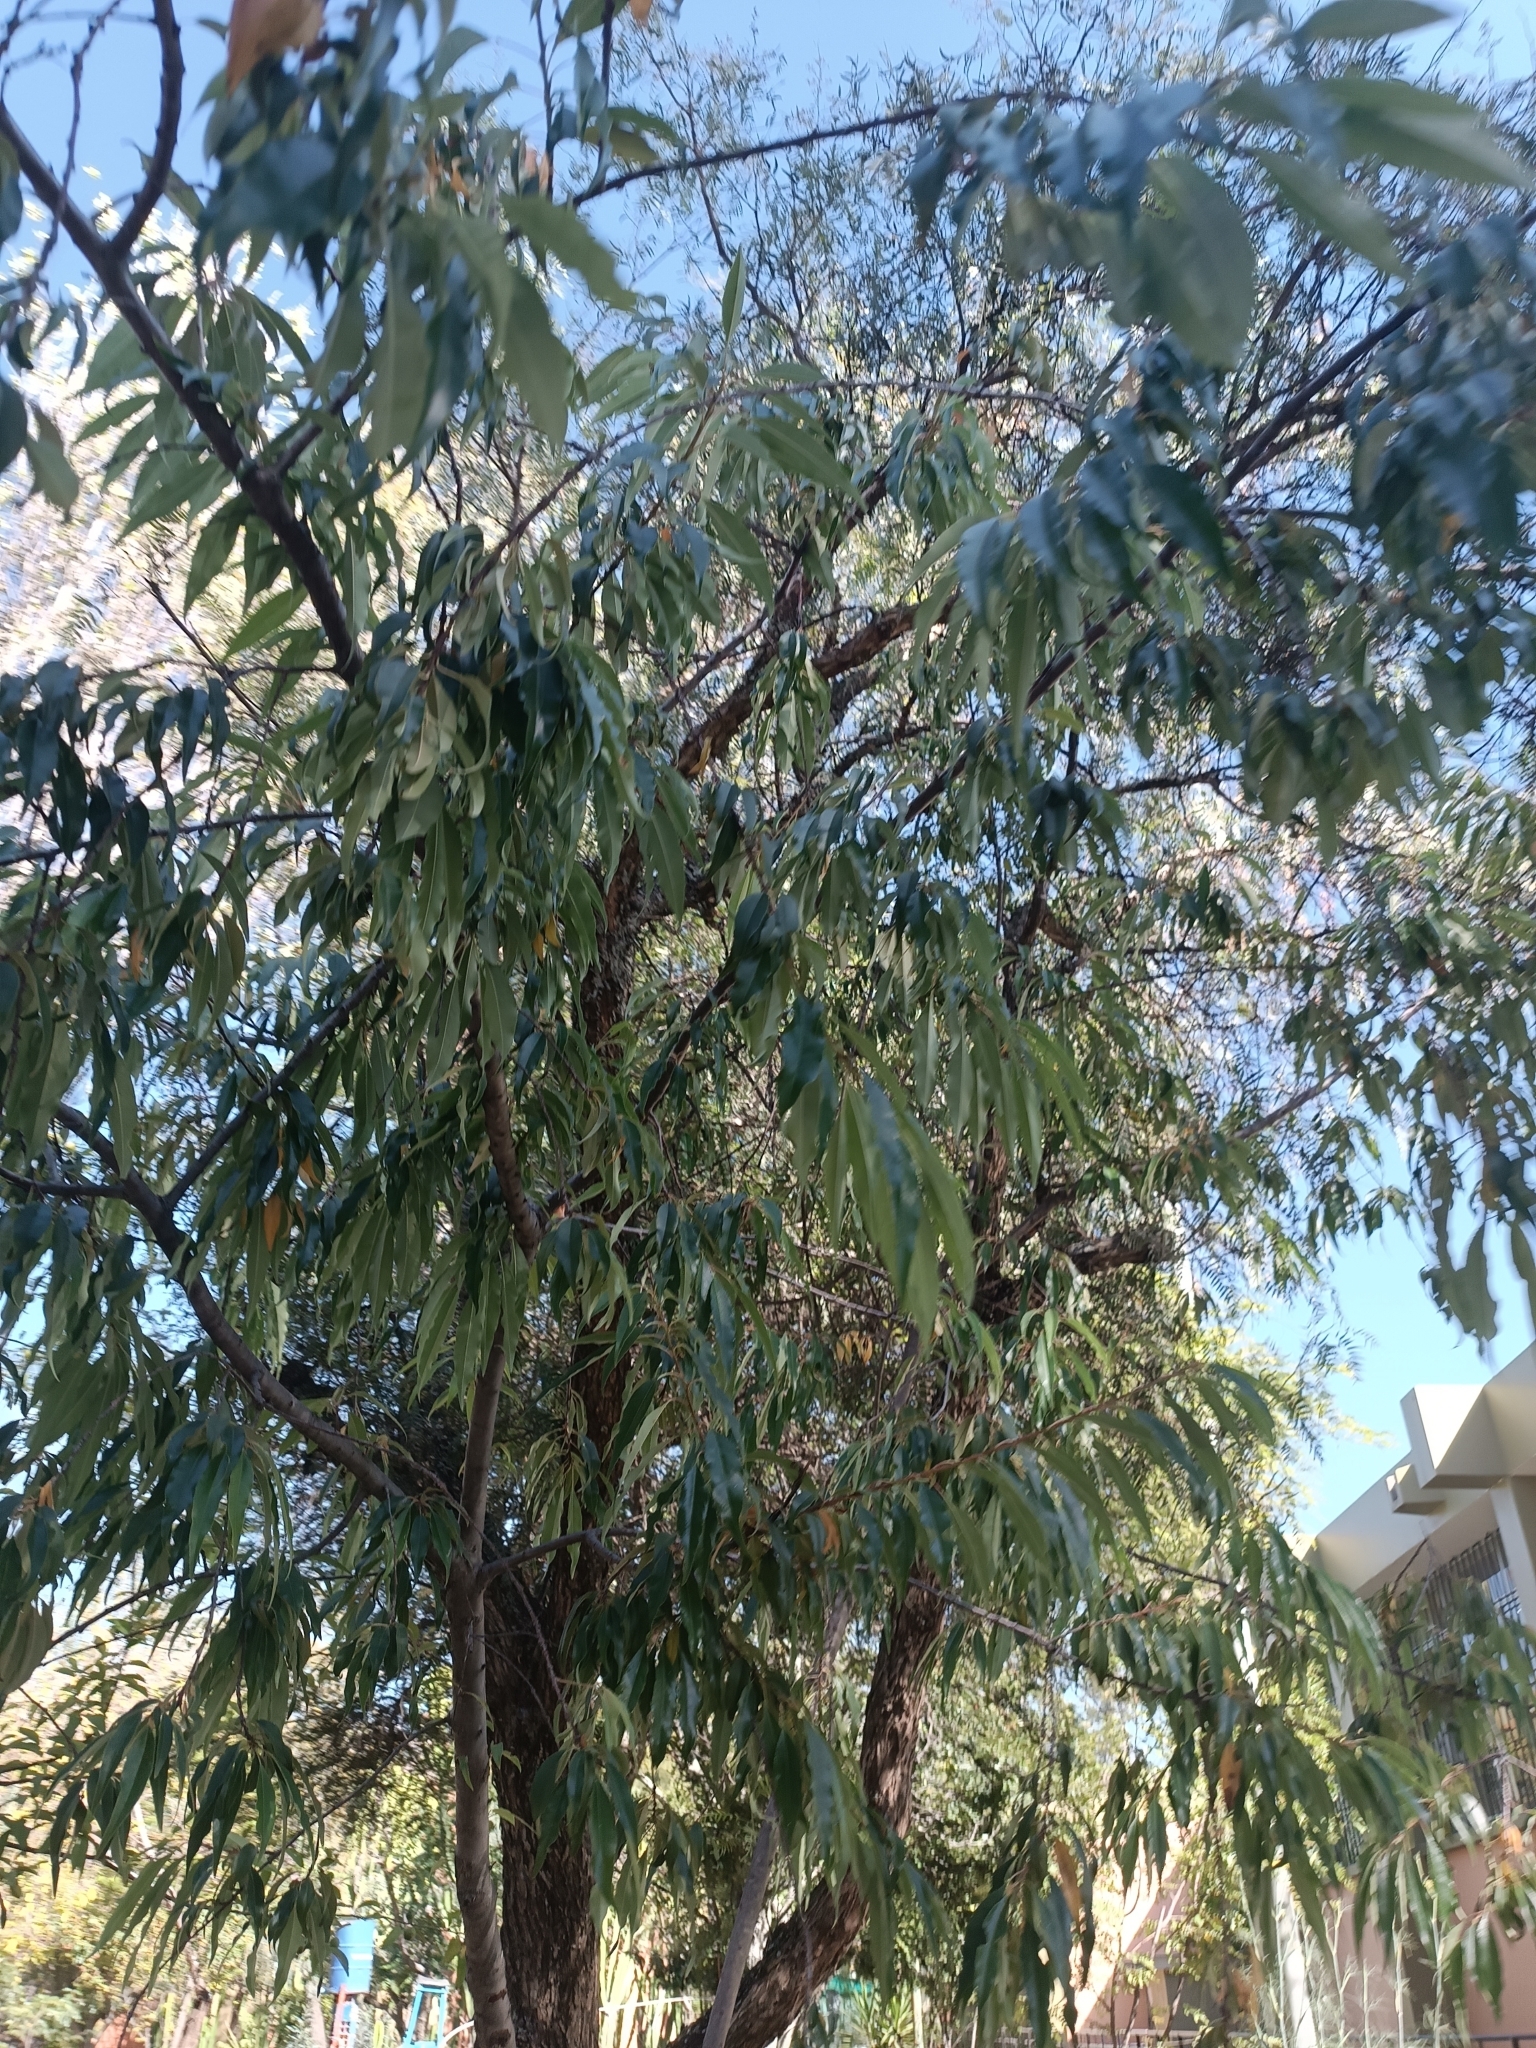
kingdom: Plantae
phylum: Tracheophyta
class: Magnoliopsida
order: Rosales
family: Rosaceae
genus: Prunus
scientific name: Prunus serotina
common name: Black cherry
